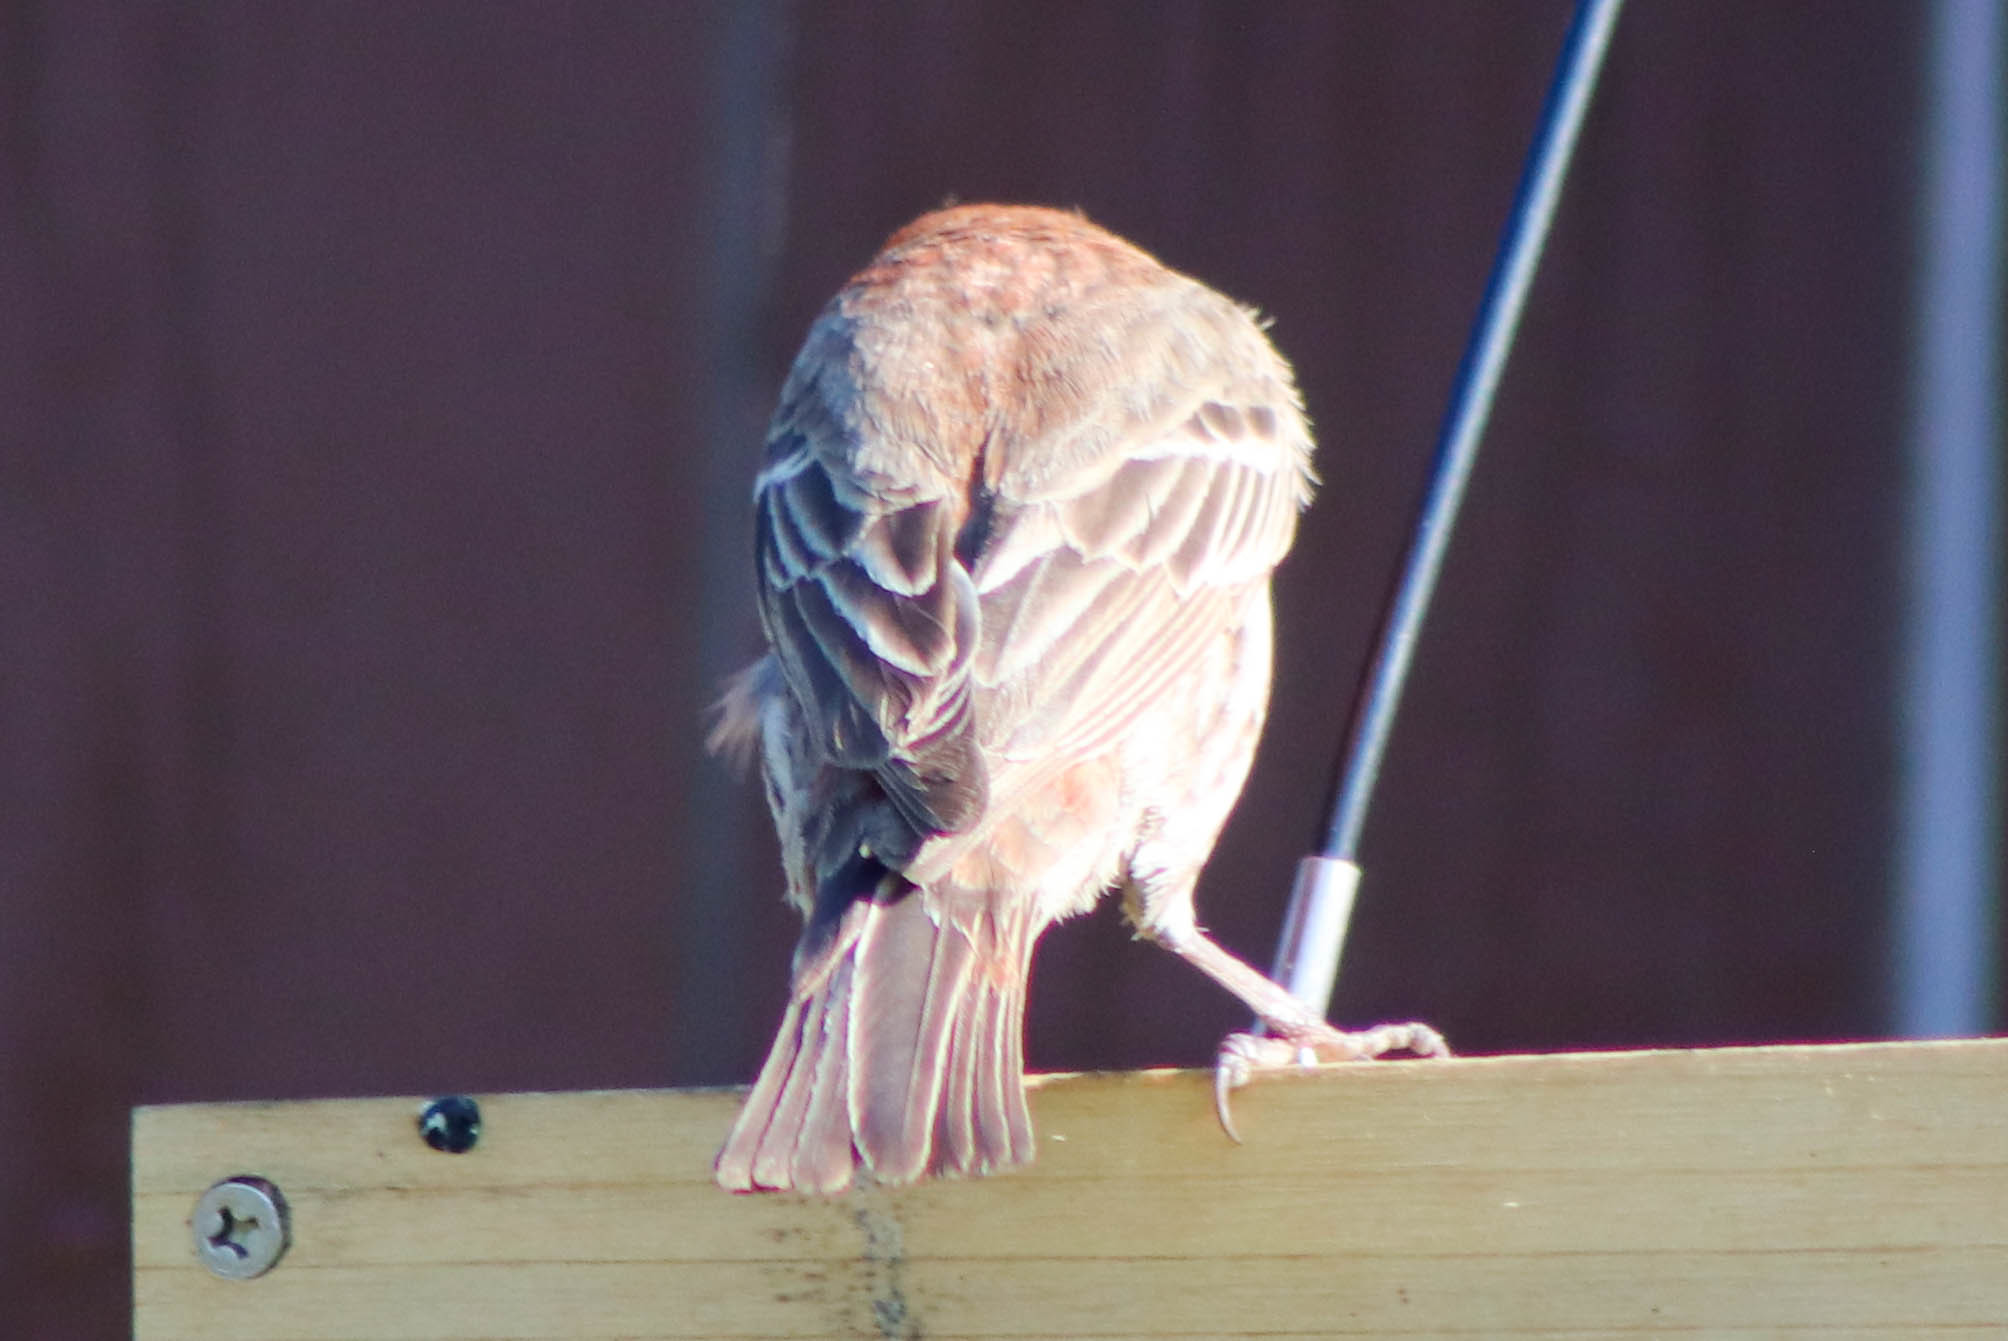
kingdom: Animalia
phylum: Chordata
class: Aves
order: Passeriformes
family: Fringillidae
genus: Haemorhous
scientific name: Haemorhous mexicanus
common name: House finch
